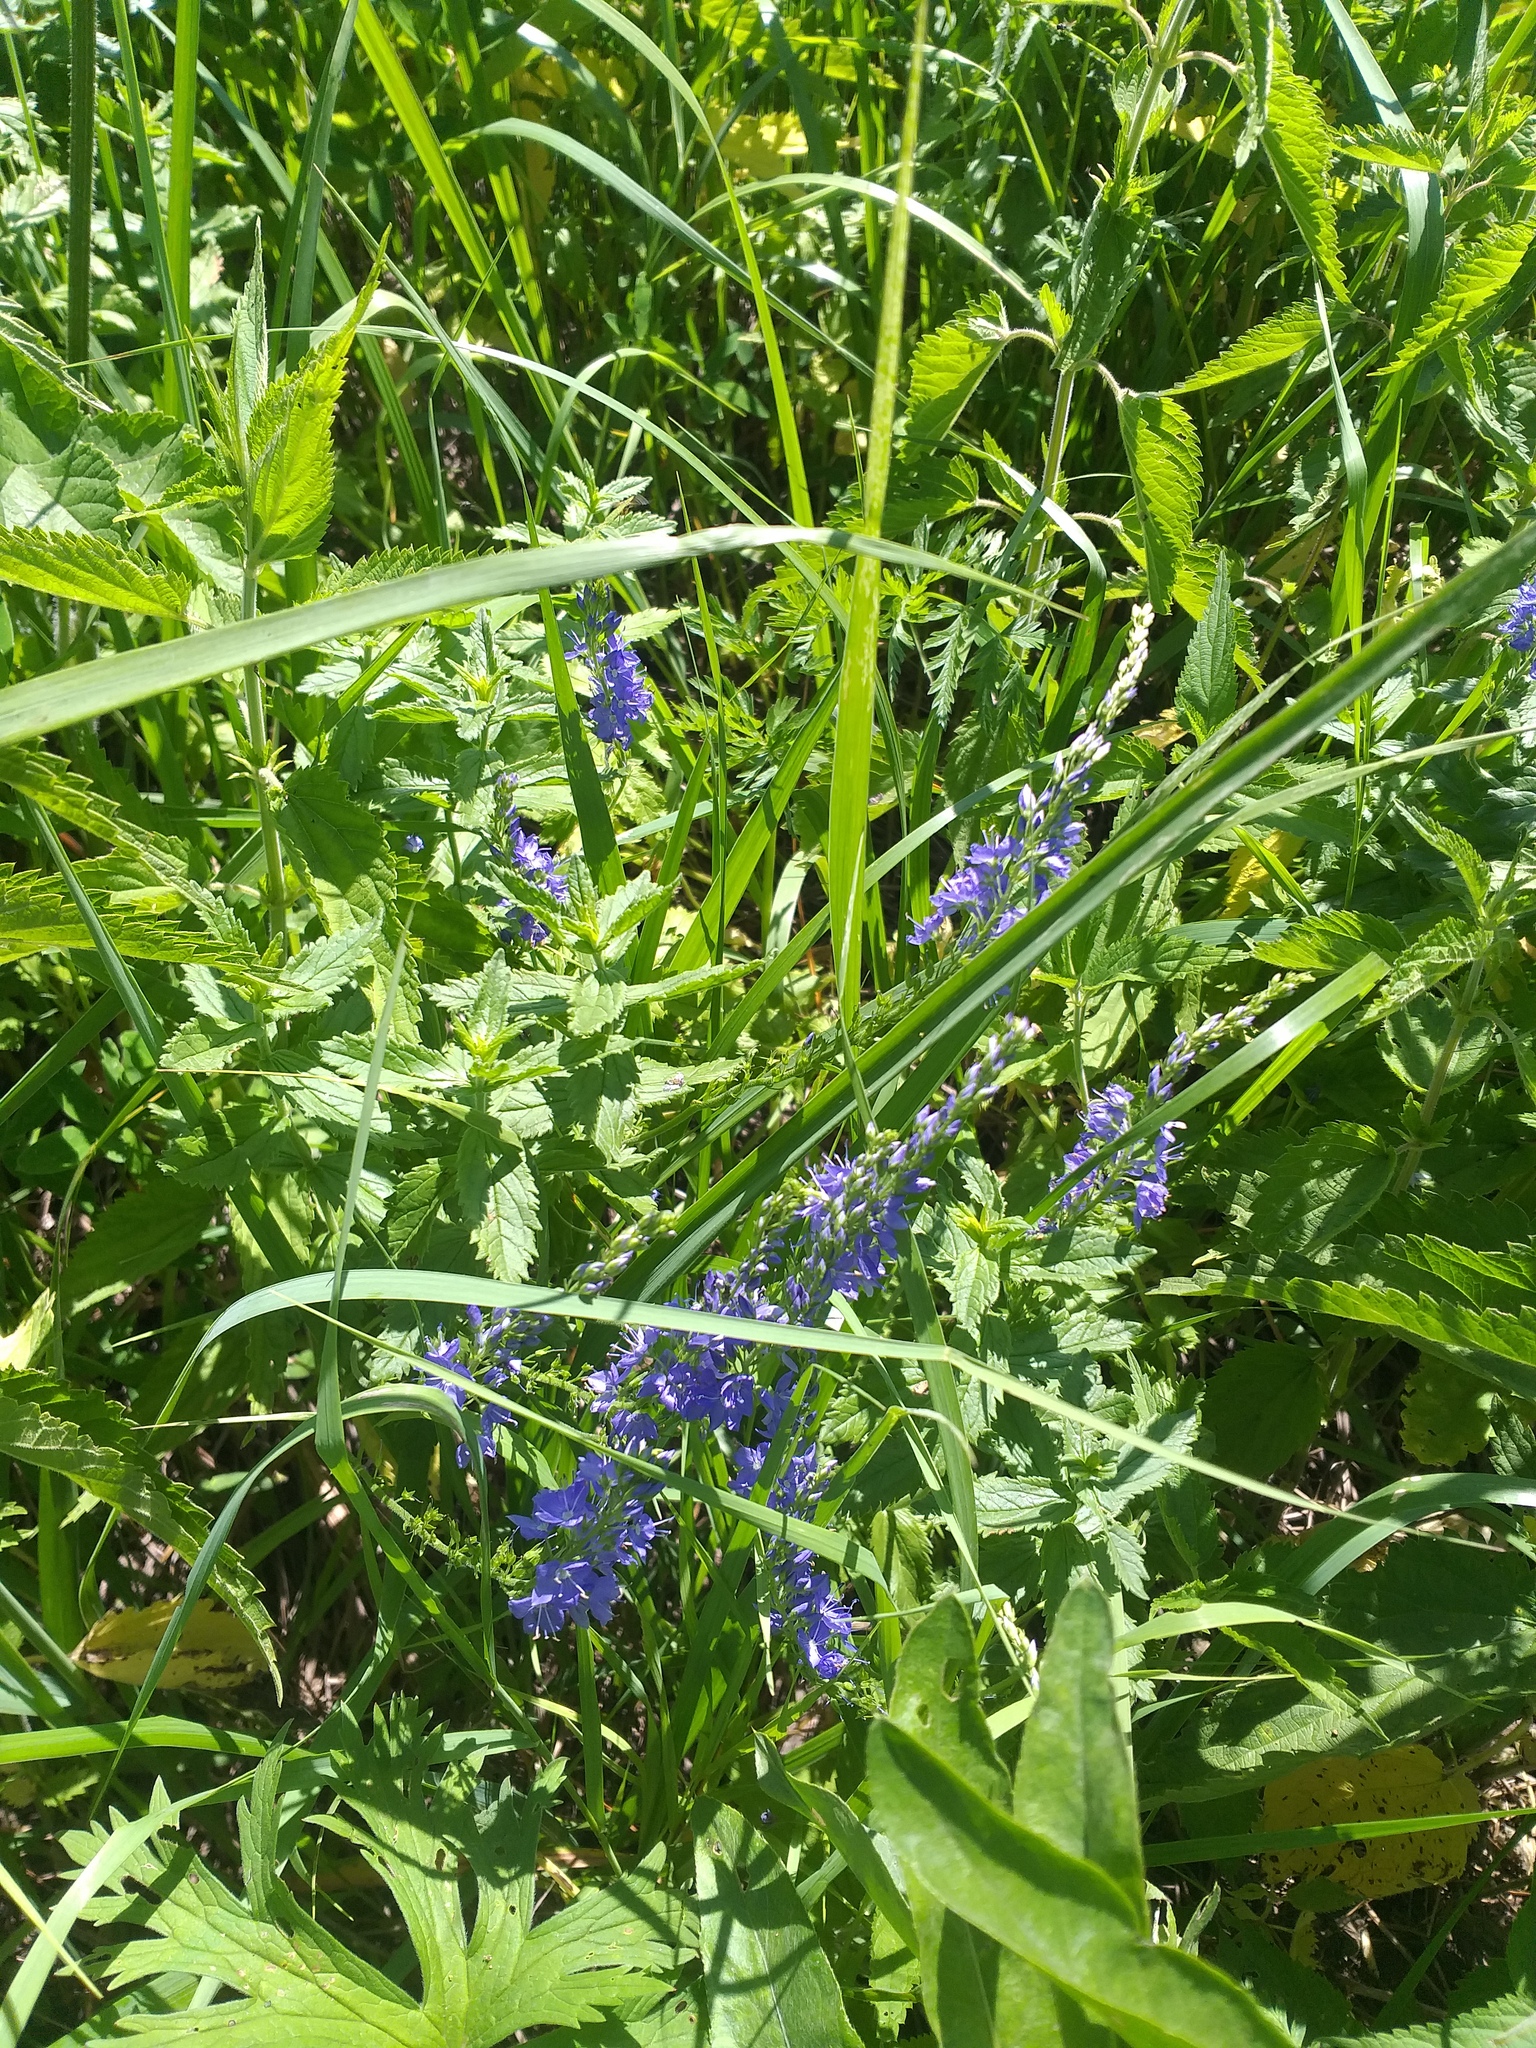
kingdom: Plantae
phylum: Tracheophyta
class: Magnoliopsida
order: Lamiales
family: Plantaginaceae
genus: Veronica
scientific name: Veronica teucrium
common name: Large speedwell
